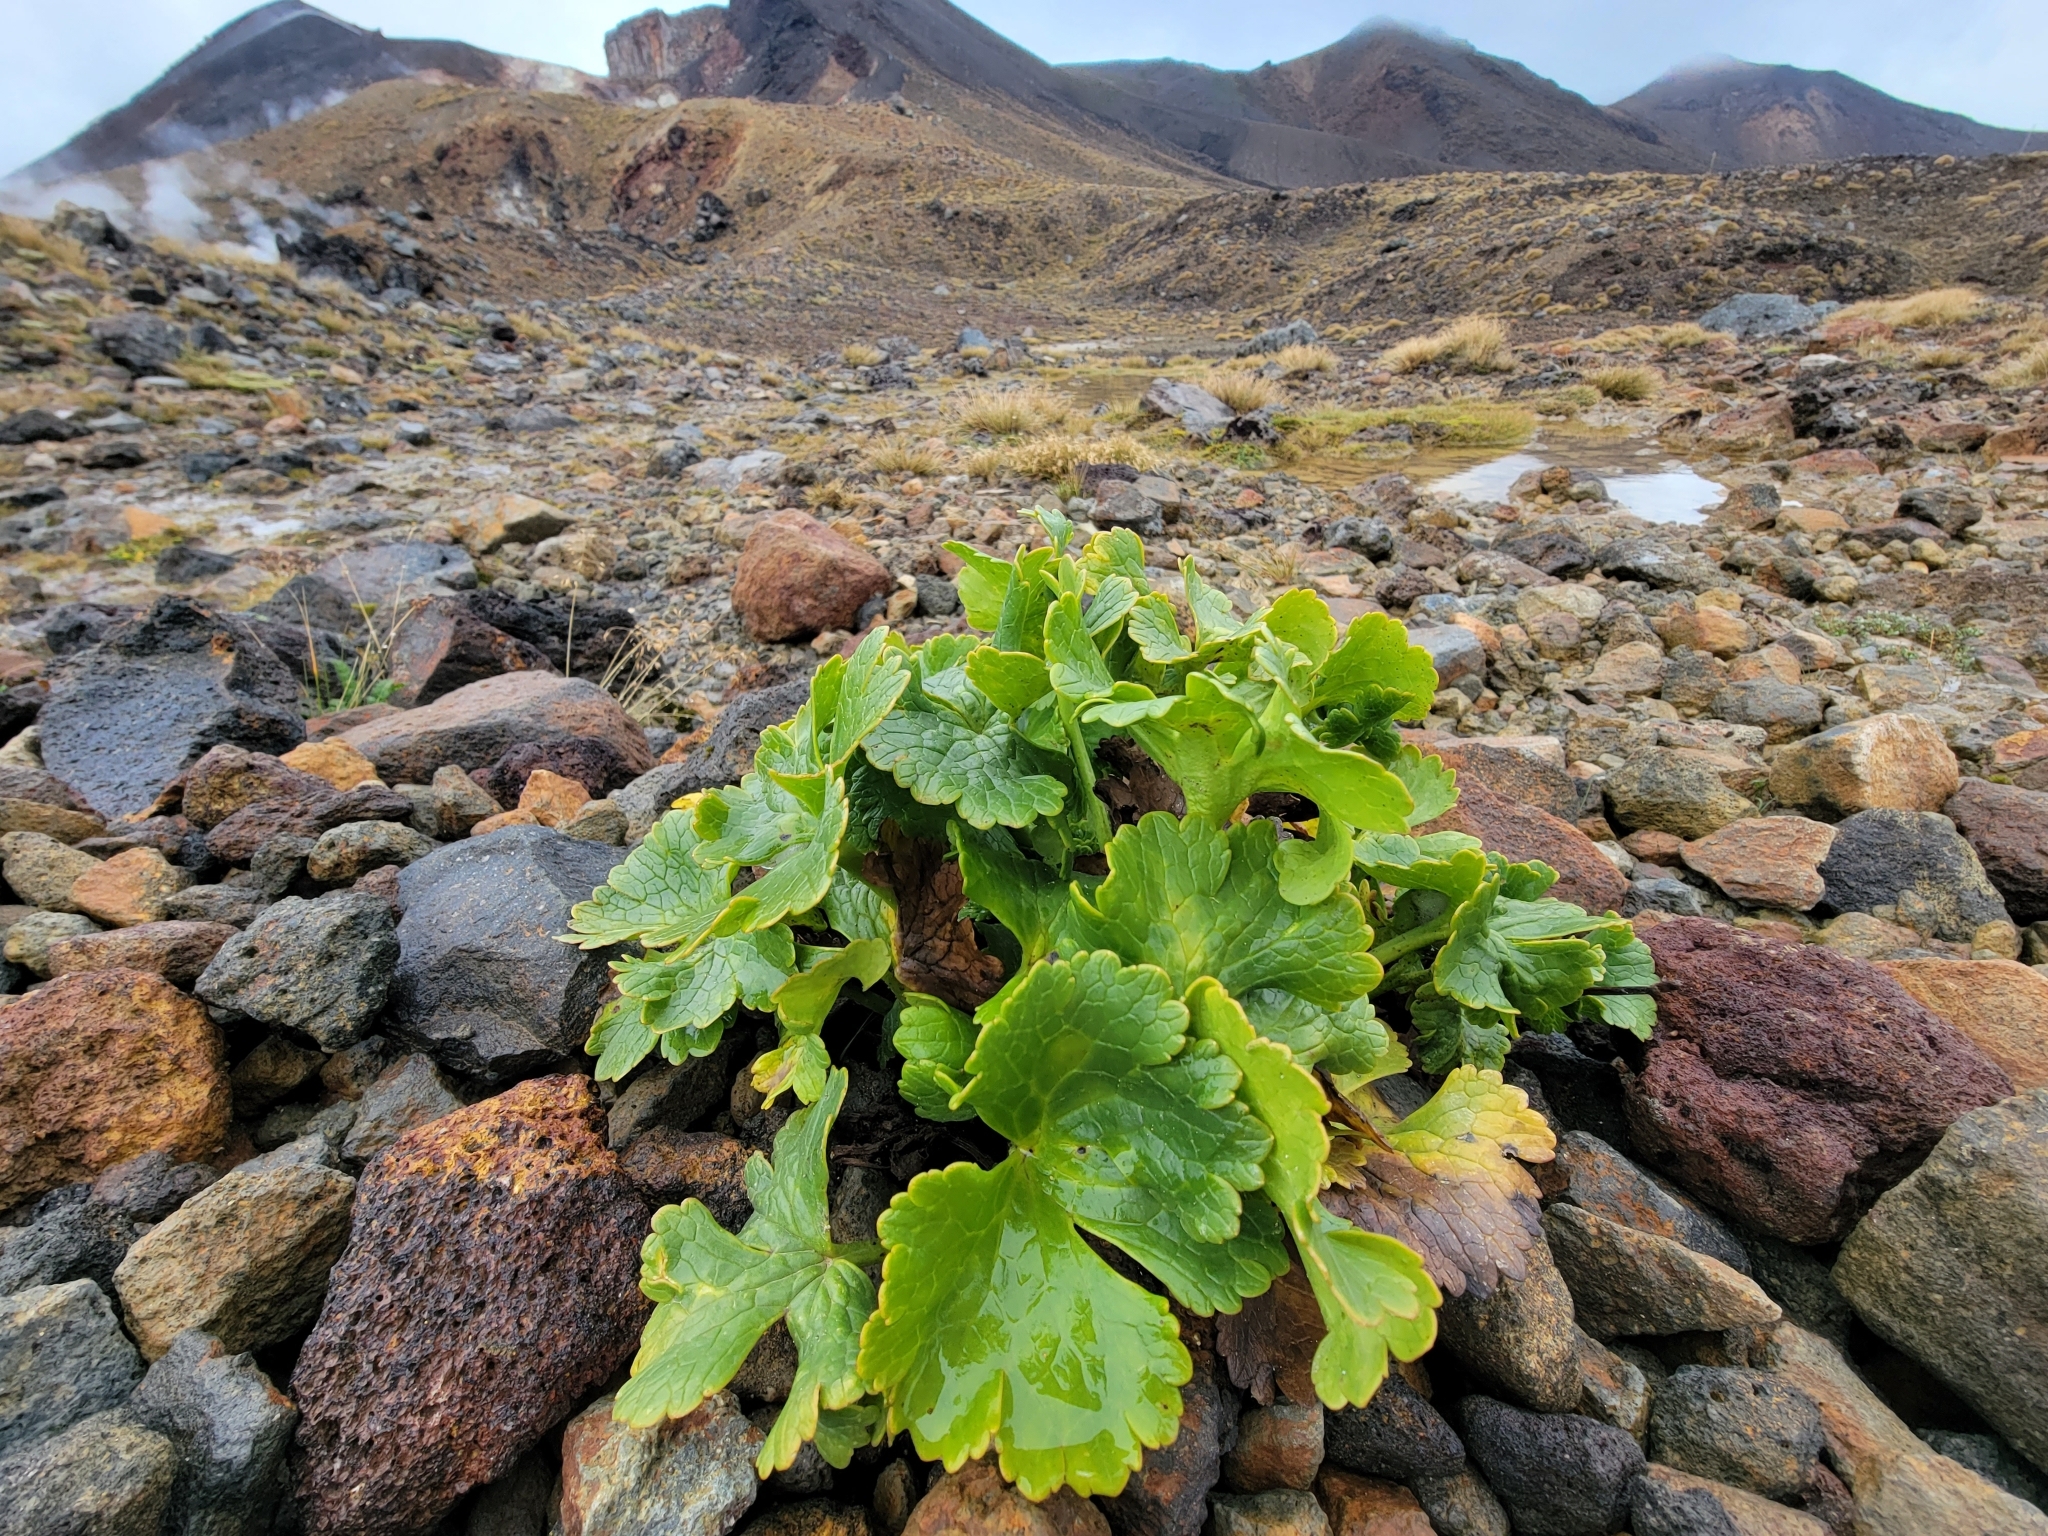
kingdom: Plantae
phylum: Tracheophyta
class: Magnoliopsida
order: Ranunculales
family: Ranunculaceae
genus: Ranunculus
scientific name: Ranunculus nivicola
